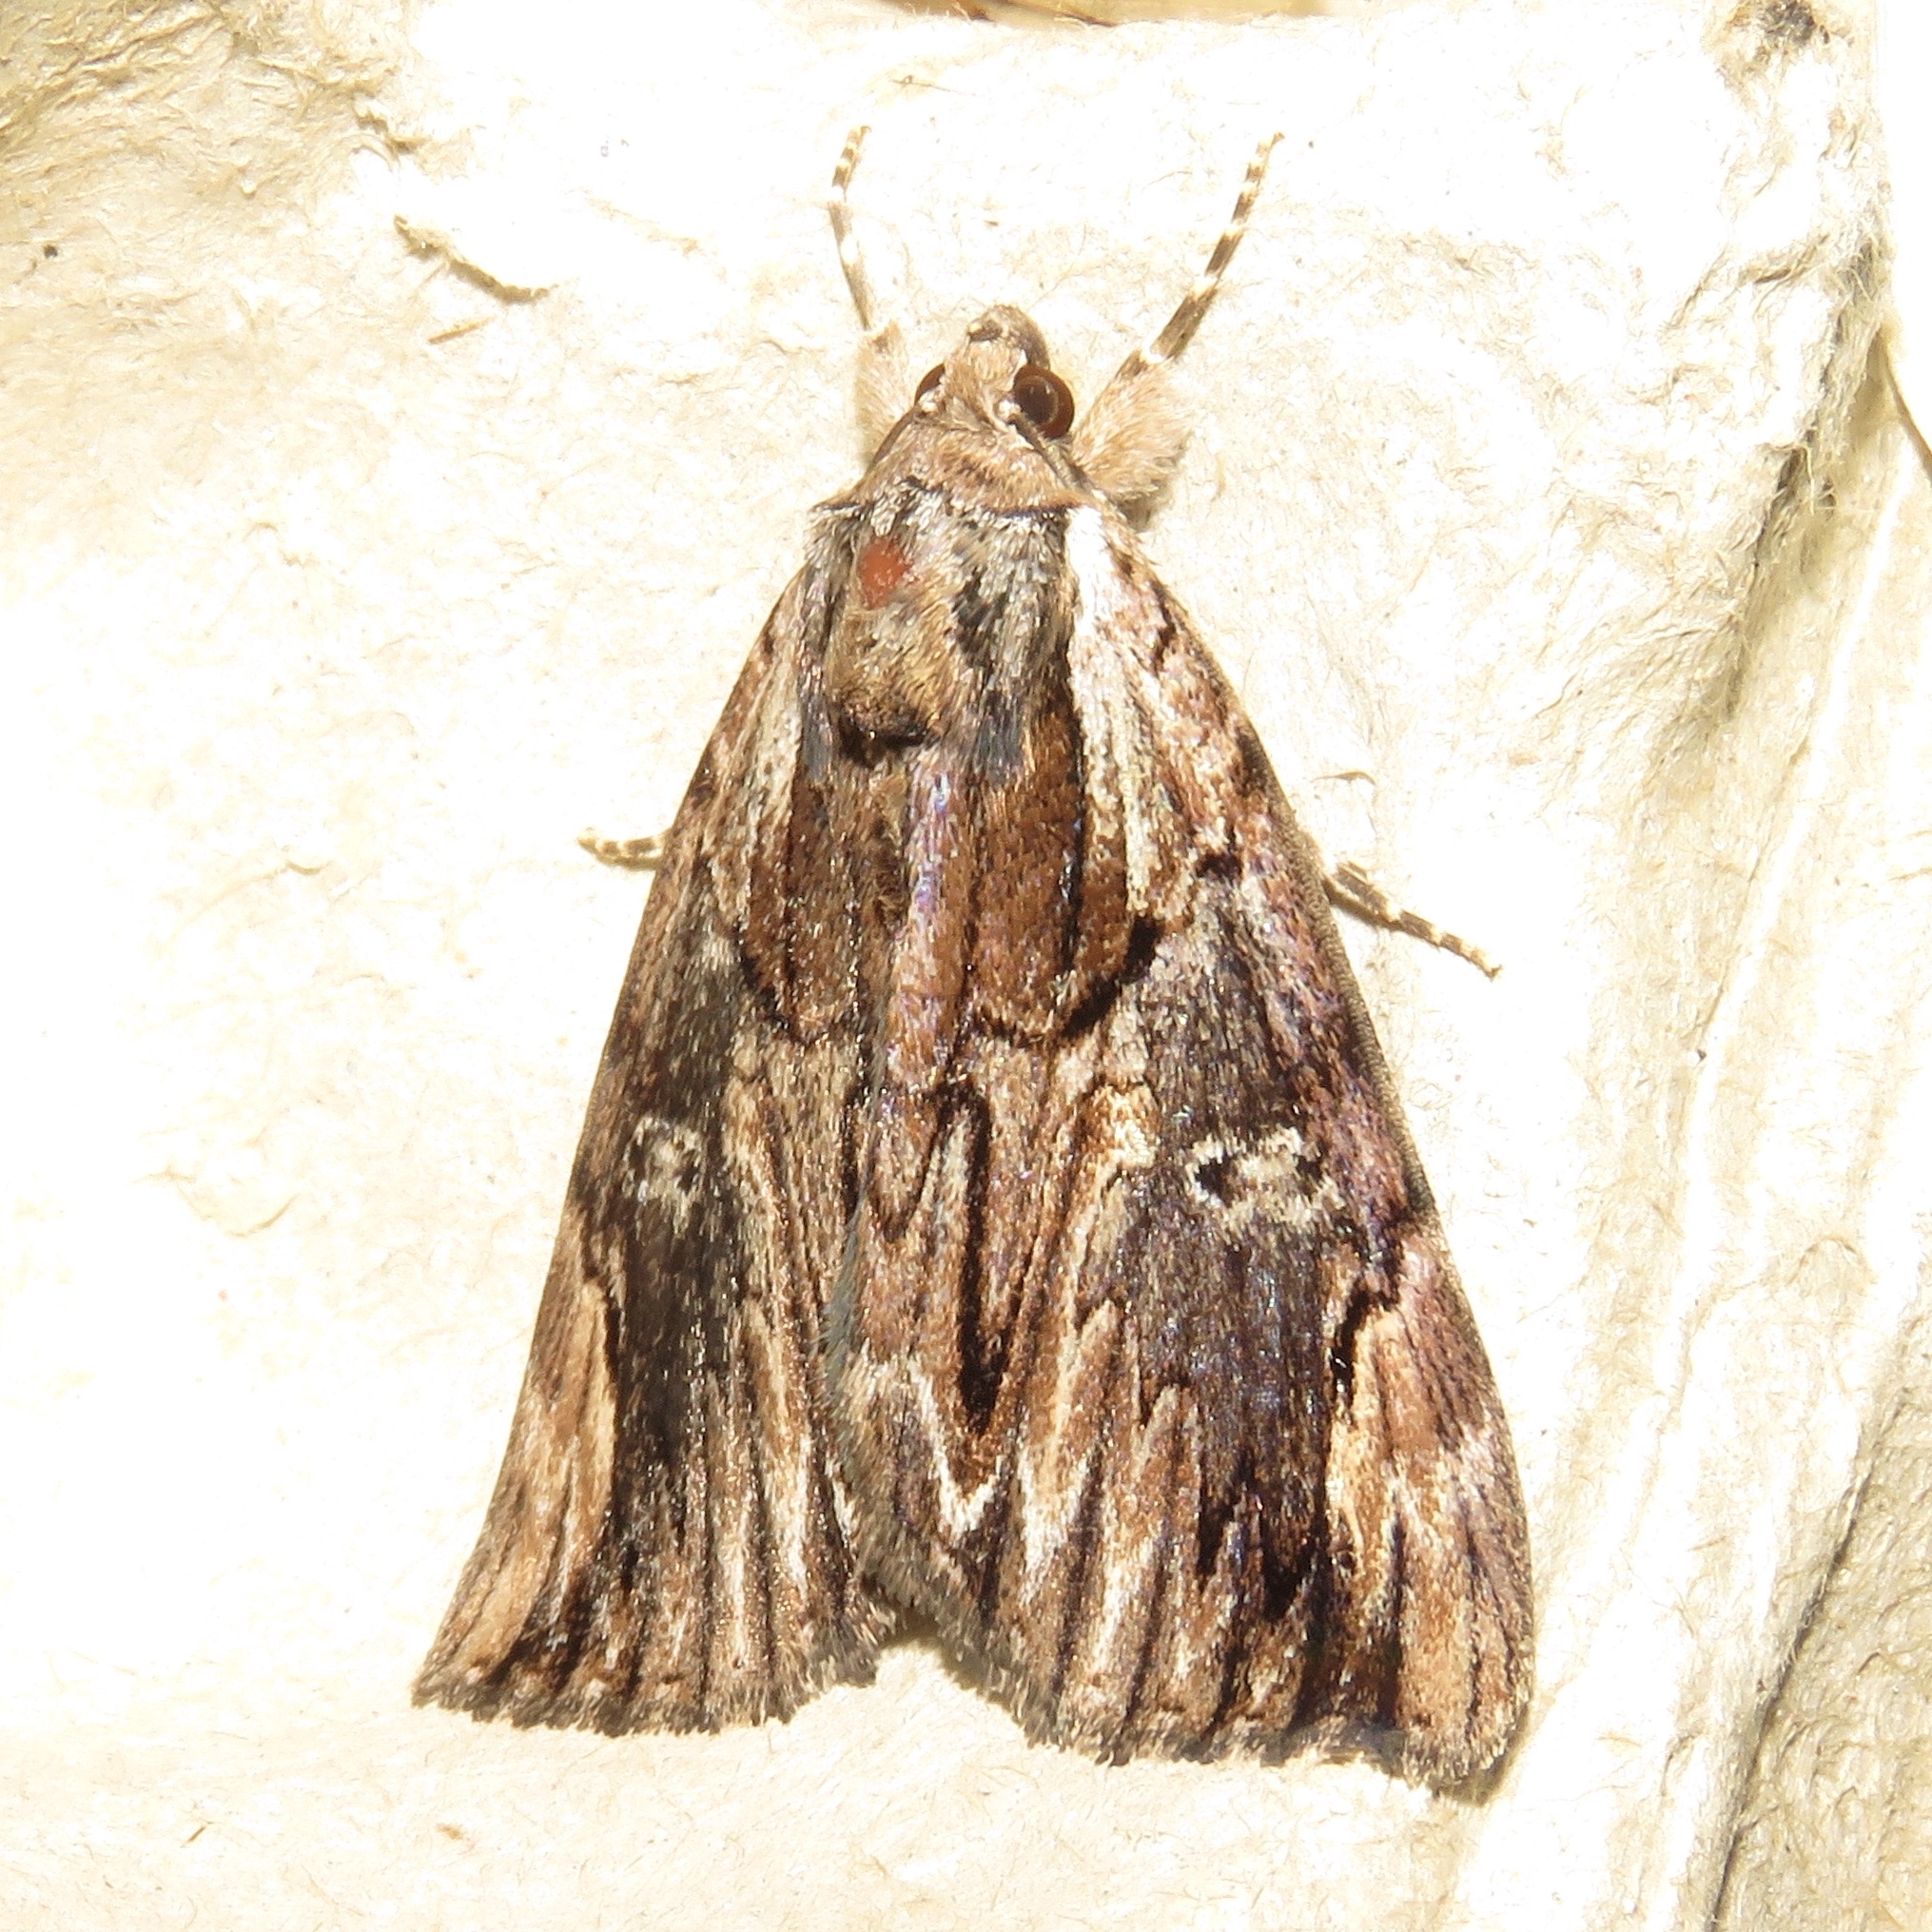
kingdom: Animalia
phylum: Arthropoda
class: Insecta
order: Lepidoptera
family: Erebidae
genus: Catocala
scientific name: Catocala ultronia
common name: Ultronia underwing
